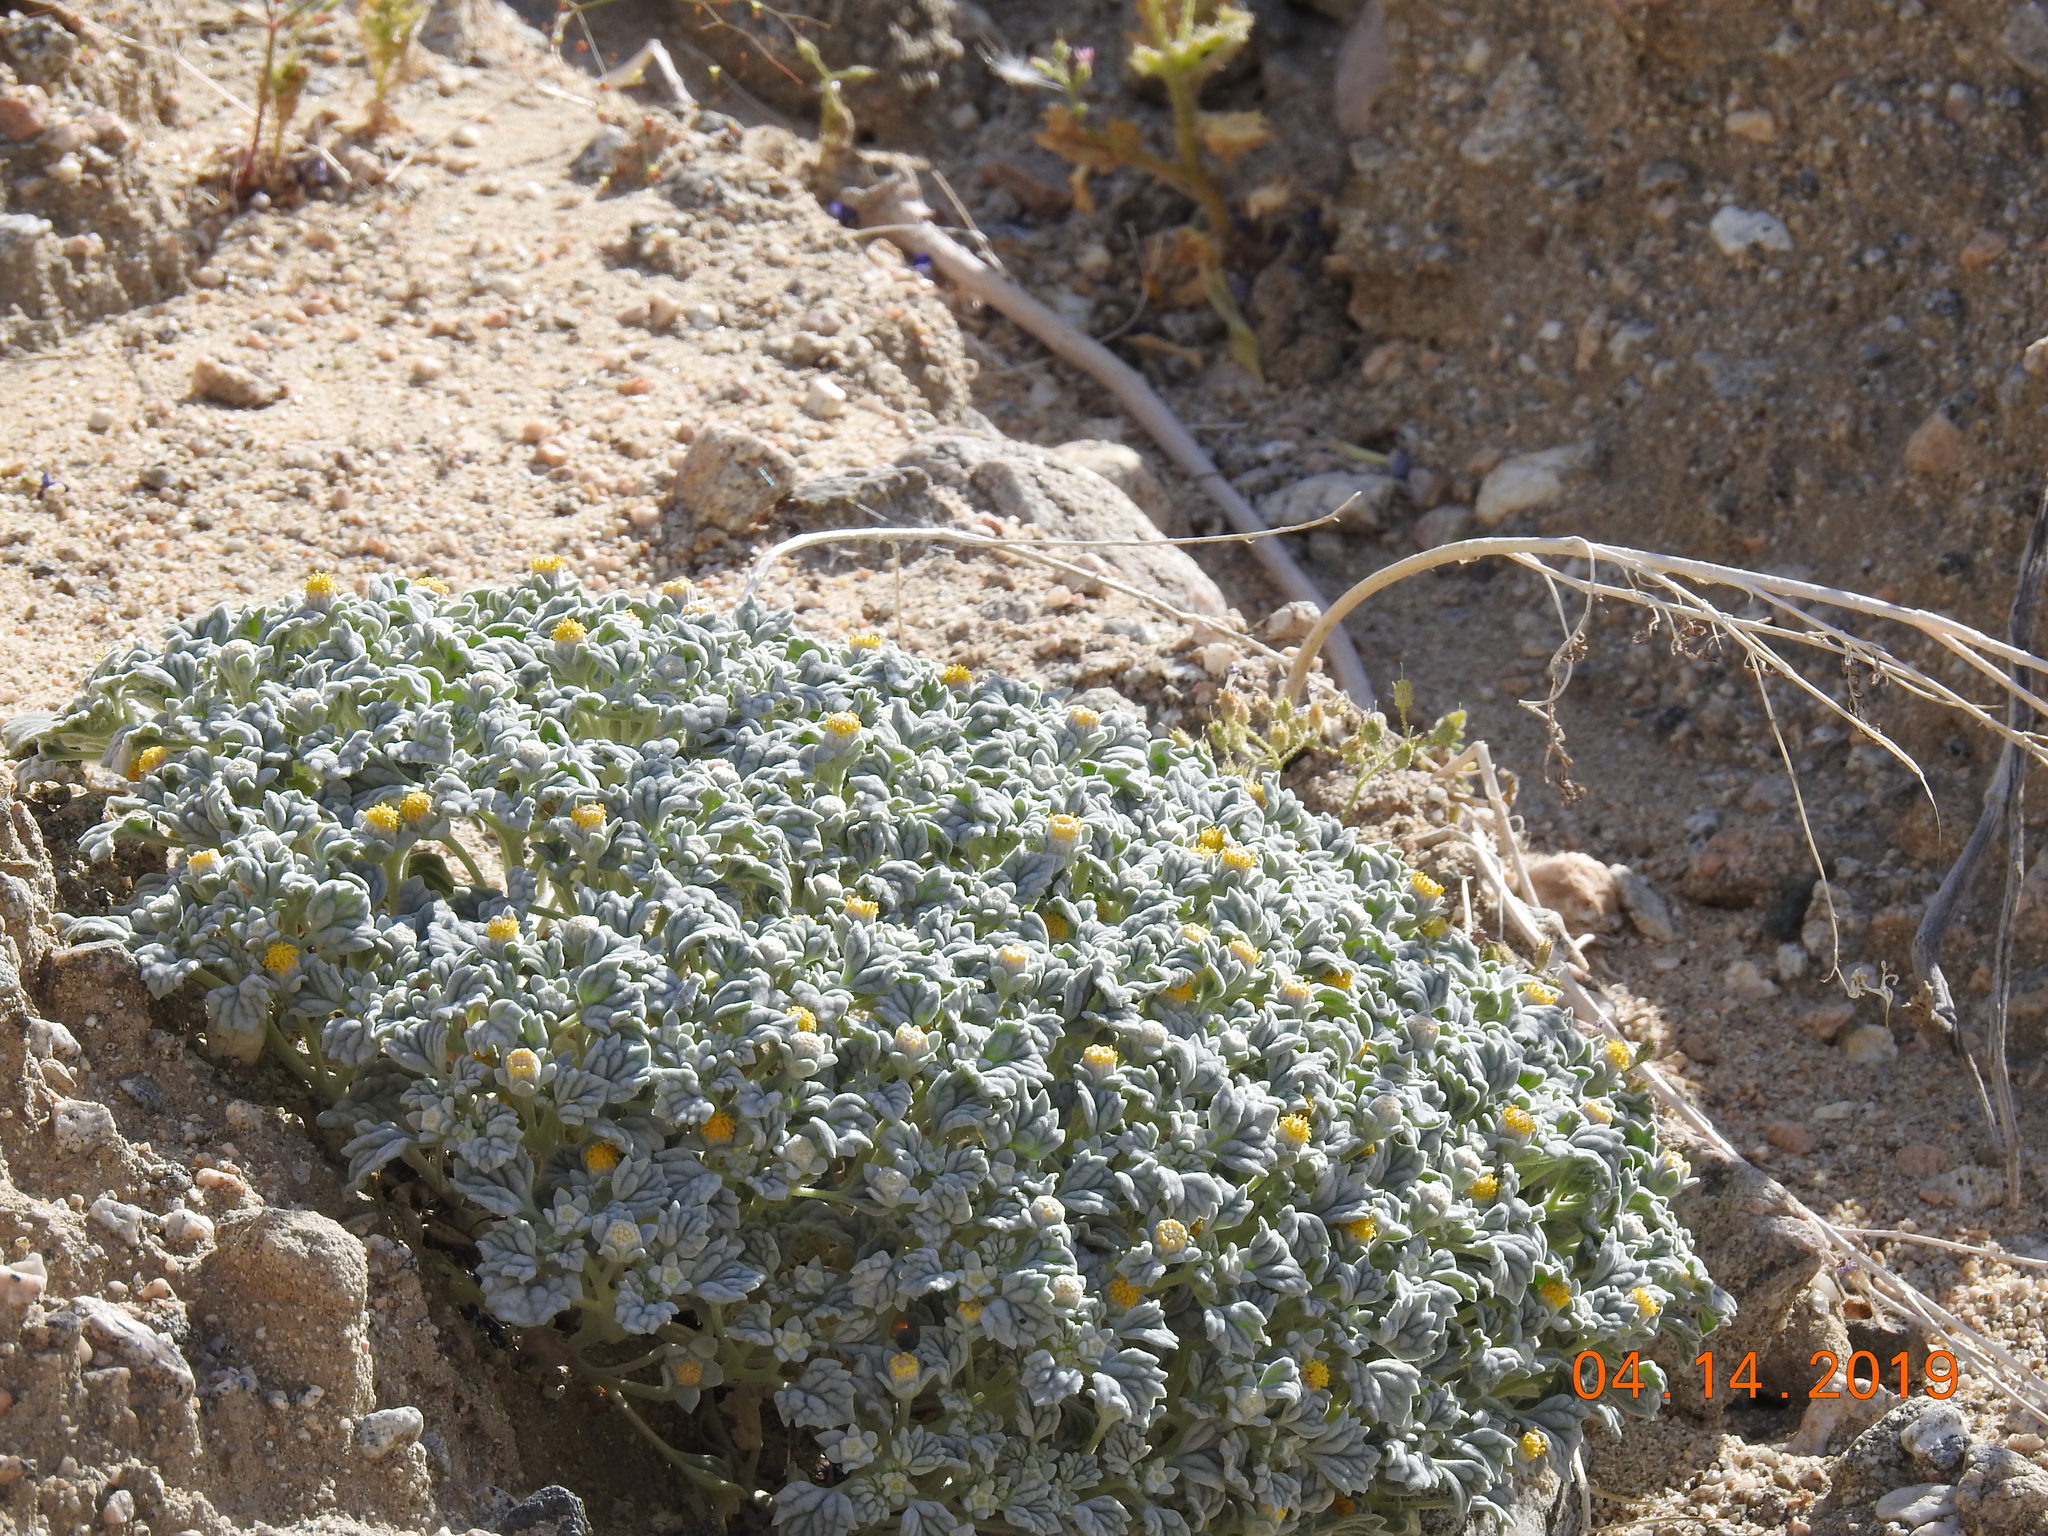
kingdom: Plantae
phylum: Tracheophyta
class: Magnoliopsida
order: Asterales
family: Asteraceae
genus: Psathyrotes
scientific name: Psathyrotes ramosissima
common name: Turtleback
